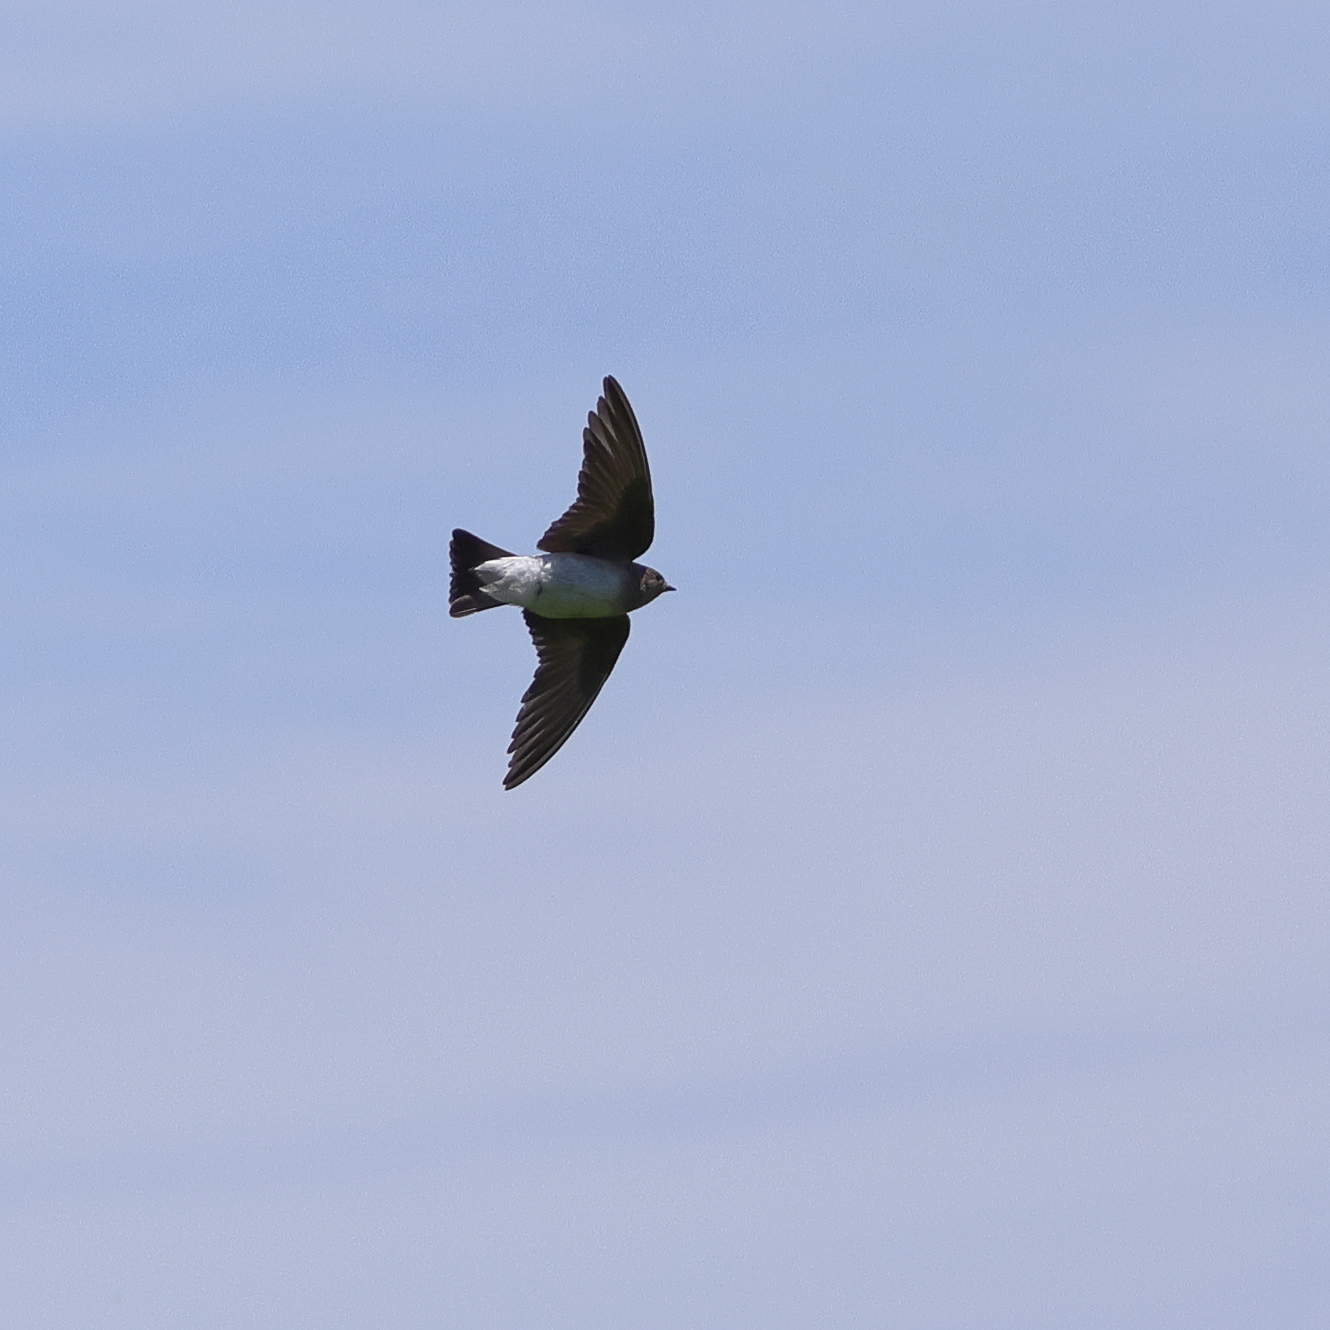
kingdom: Animalia
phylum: Chordata
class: Aves
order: Passeriformes
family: Hirundinidae
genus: Stelgidopteryx
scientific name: Stelgidopteryx serripennis
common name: Northern rough-winged swallow
